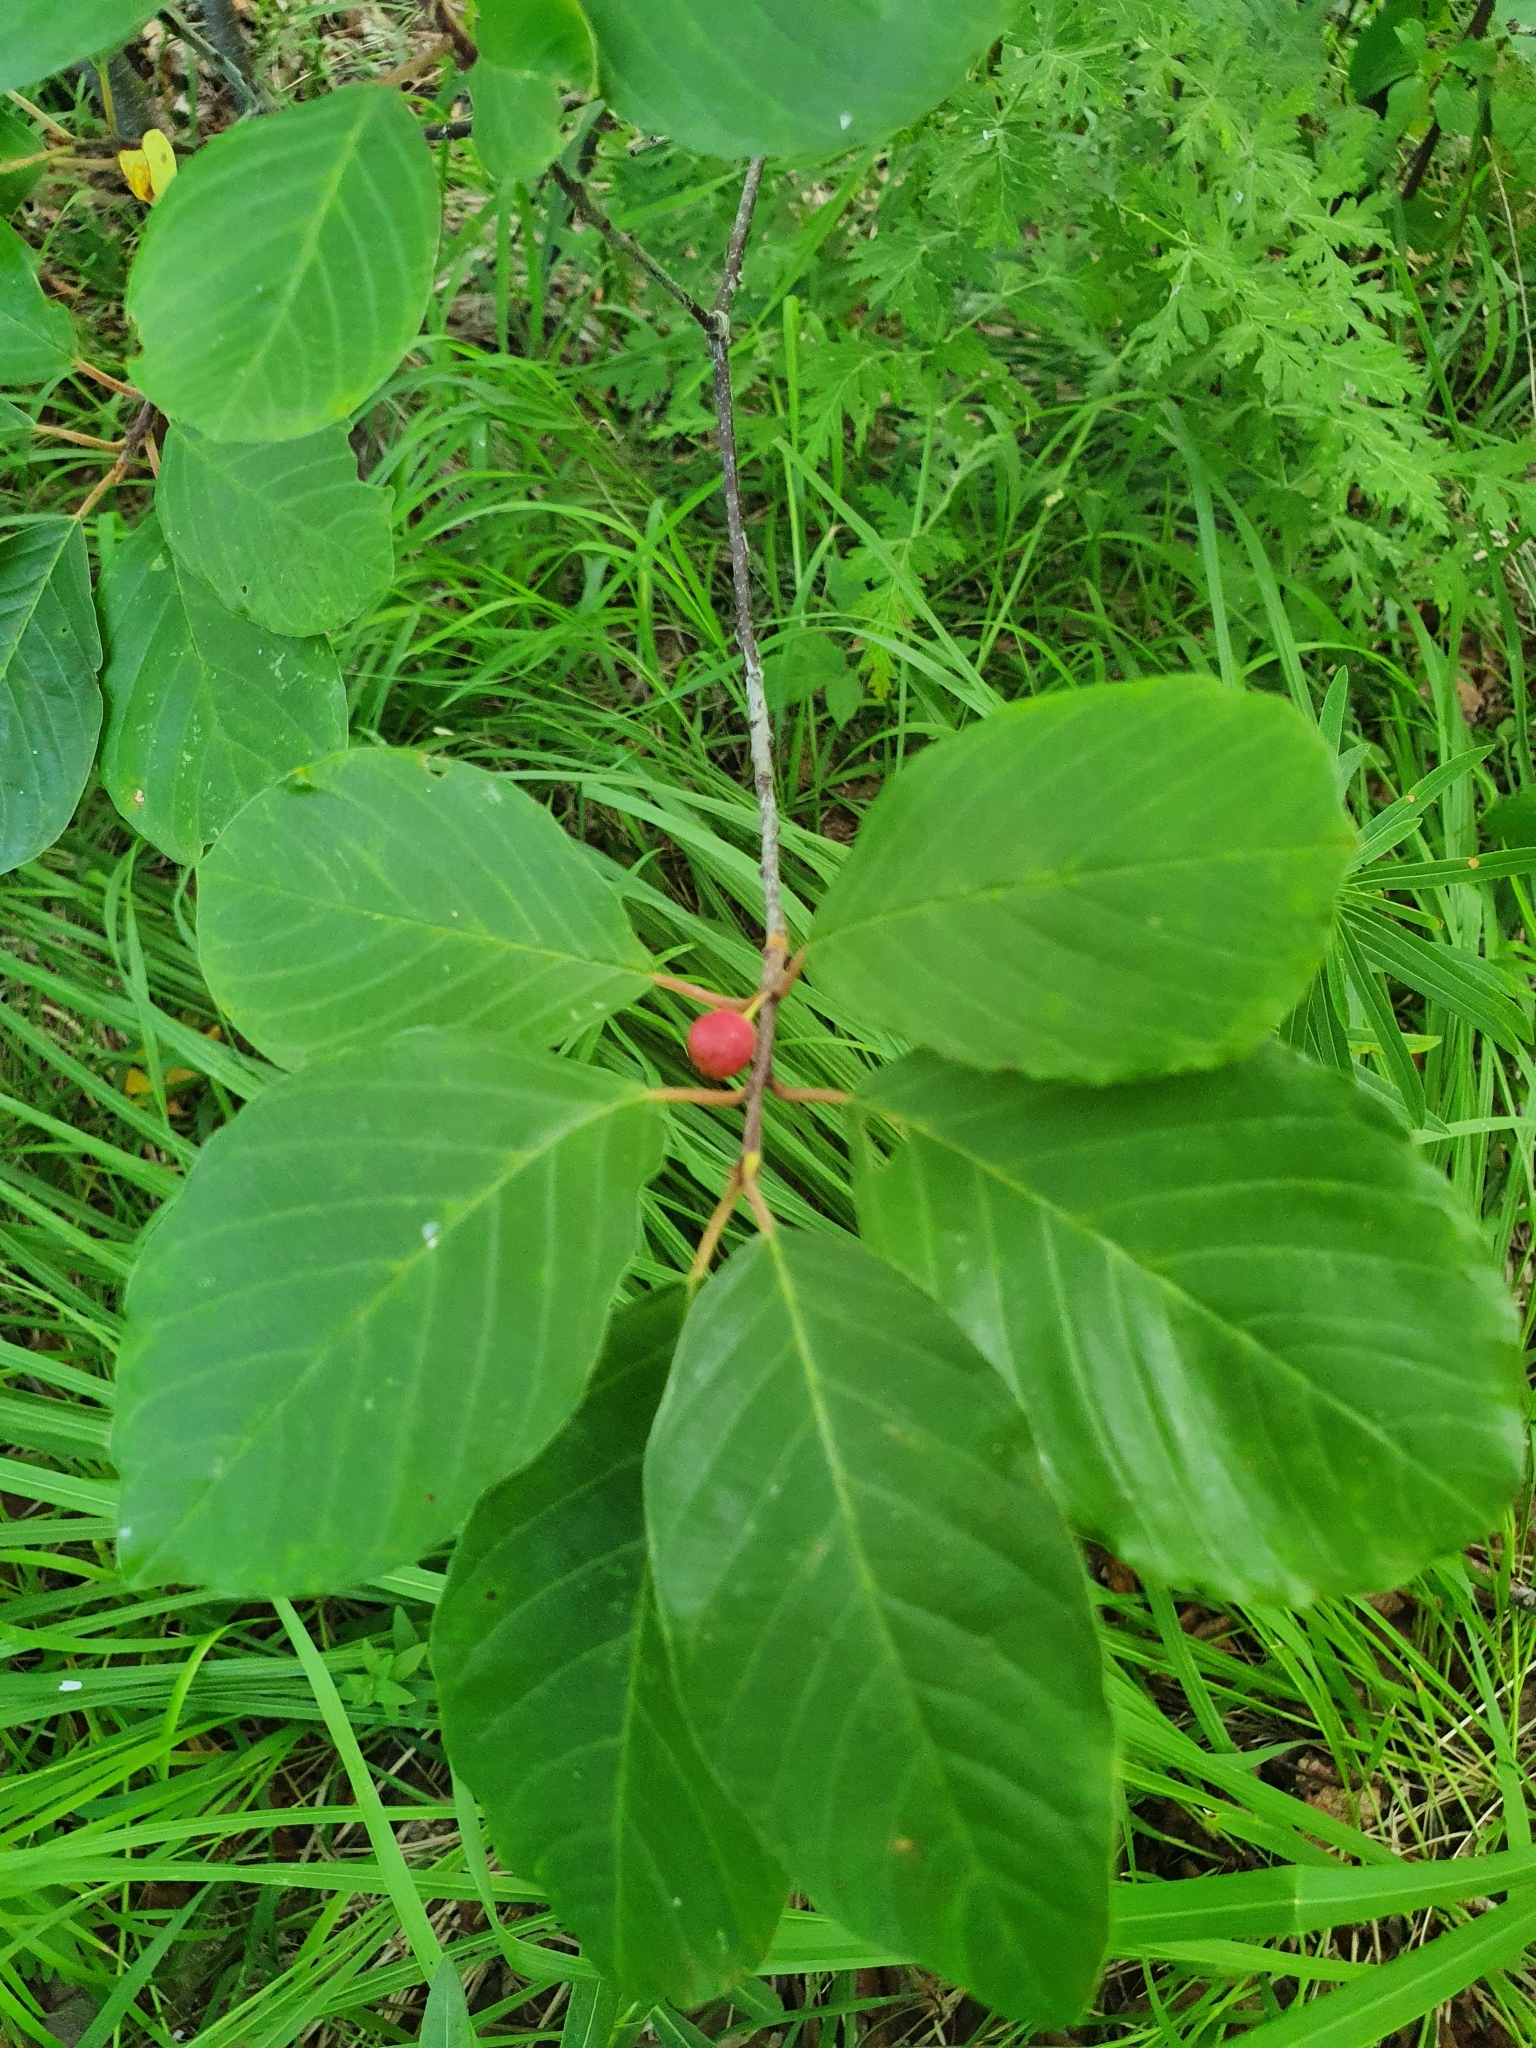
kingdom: Plantae
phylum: Tracheophyta
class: Magnoliopsida
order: Rosales
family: Rhamnaceae
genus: Frangula
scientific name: Frangula alnus
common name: Alder buckthorn
